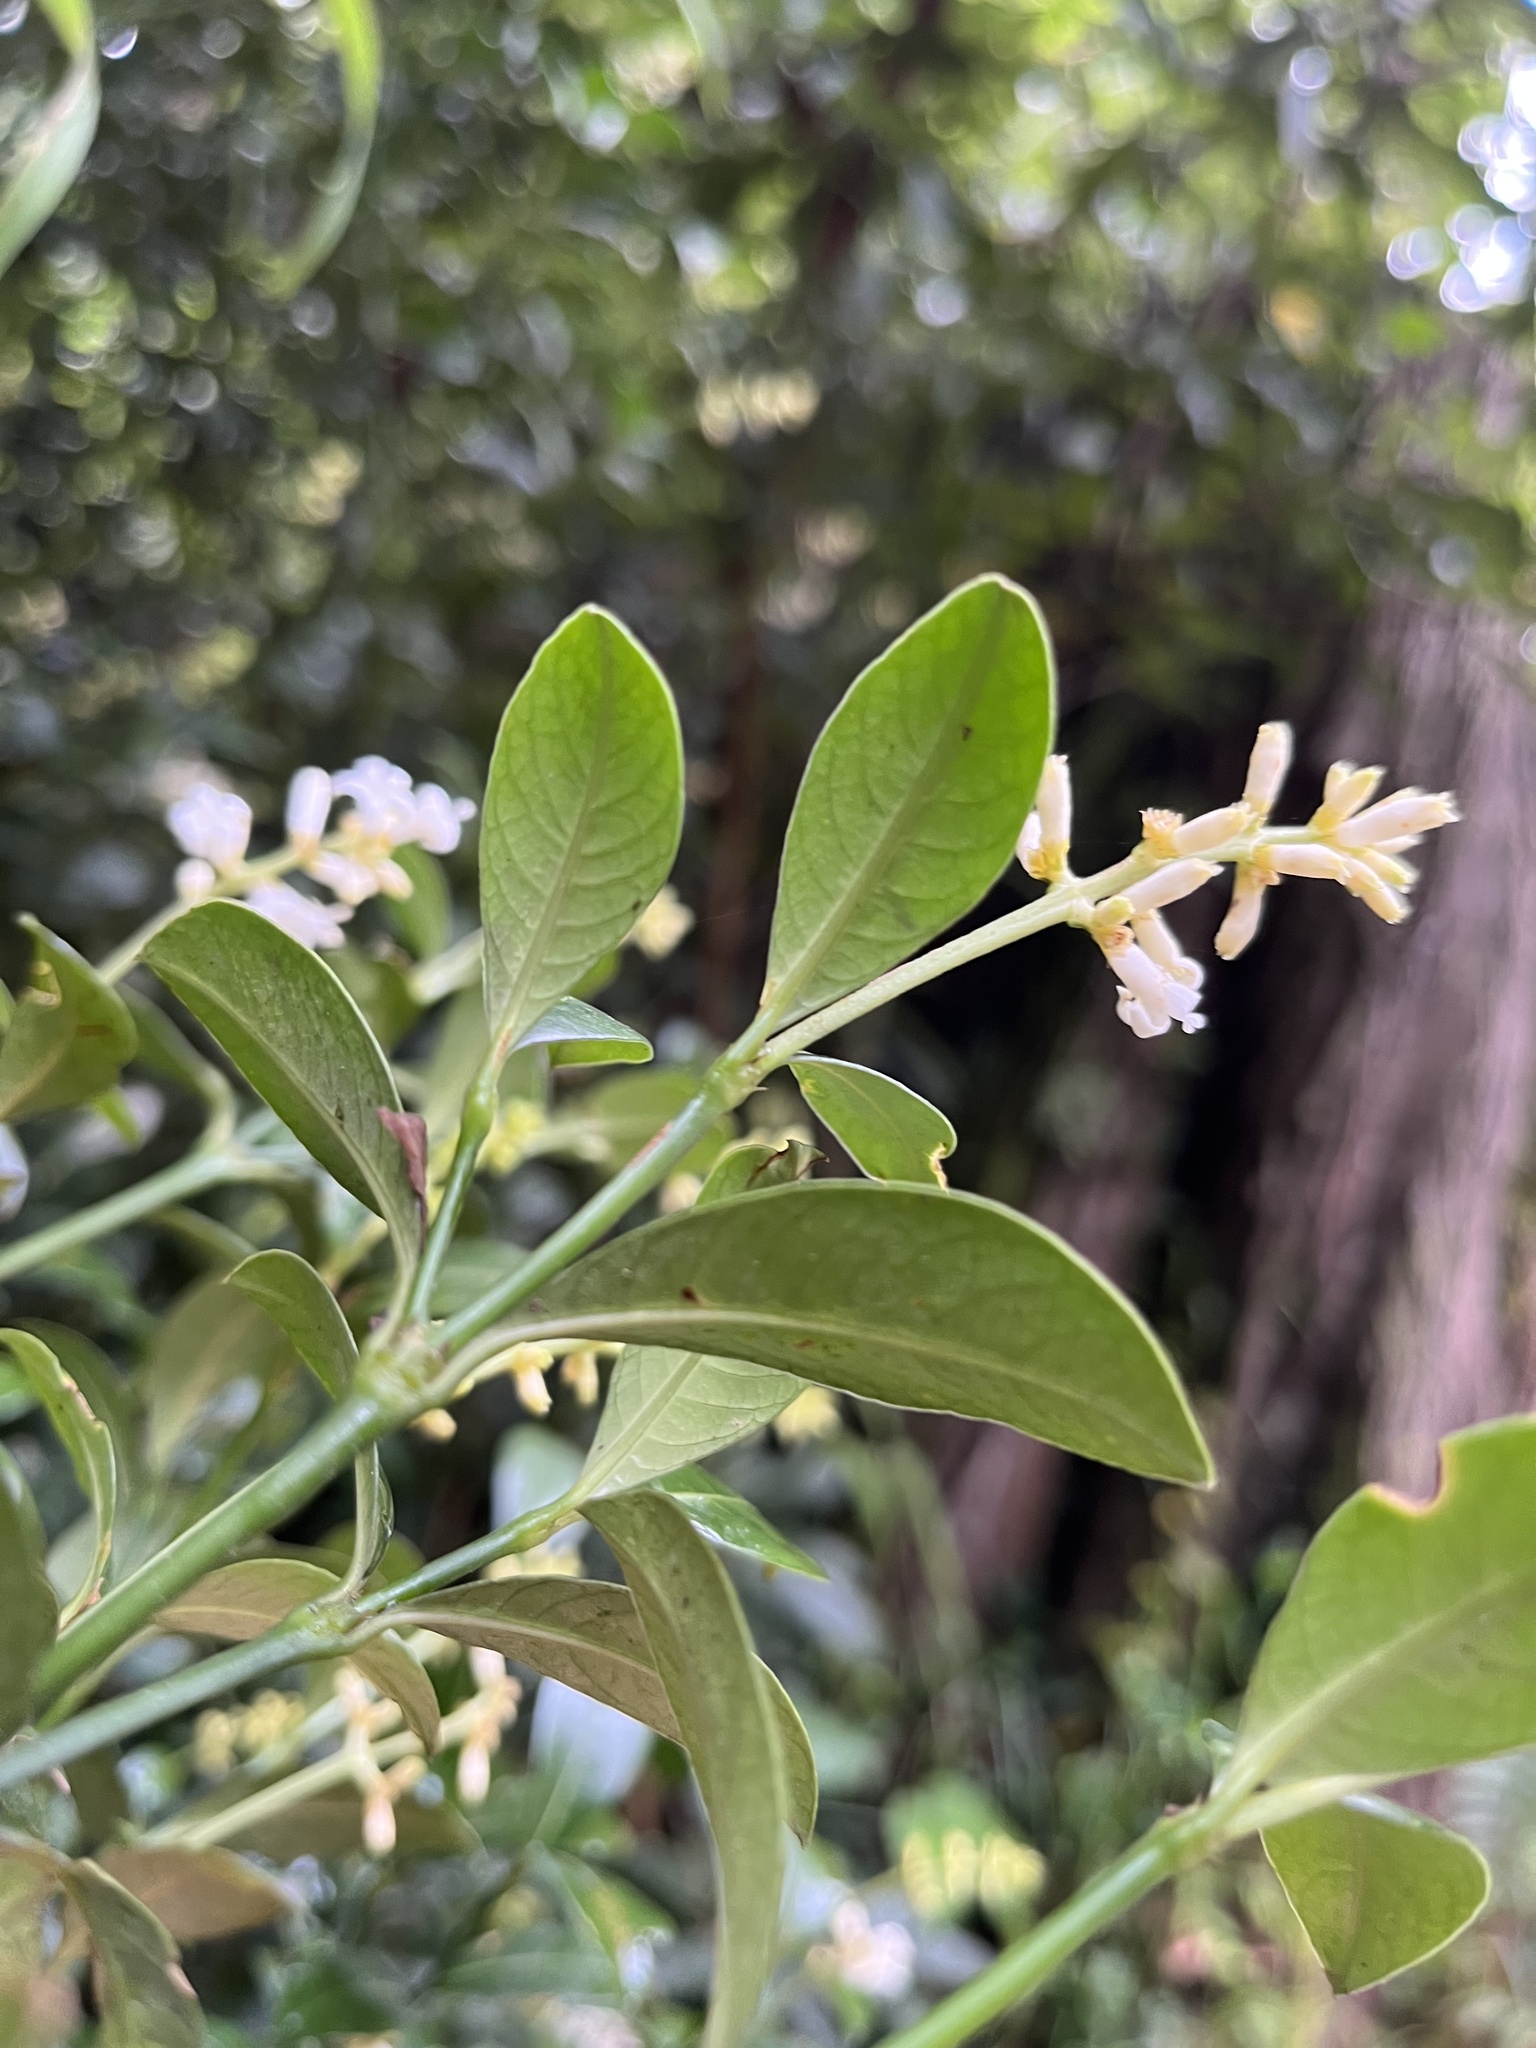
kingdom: Plantae
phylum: Tracheophyta
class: Magnoliopsida
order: Gentianales
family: Rubiaceae
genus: Palicourea
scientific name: Palicourea boqueronensis
